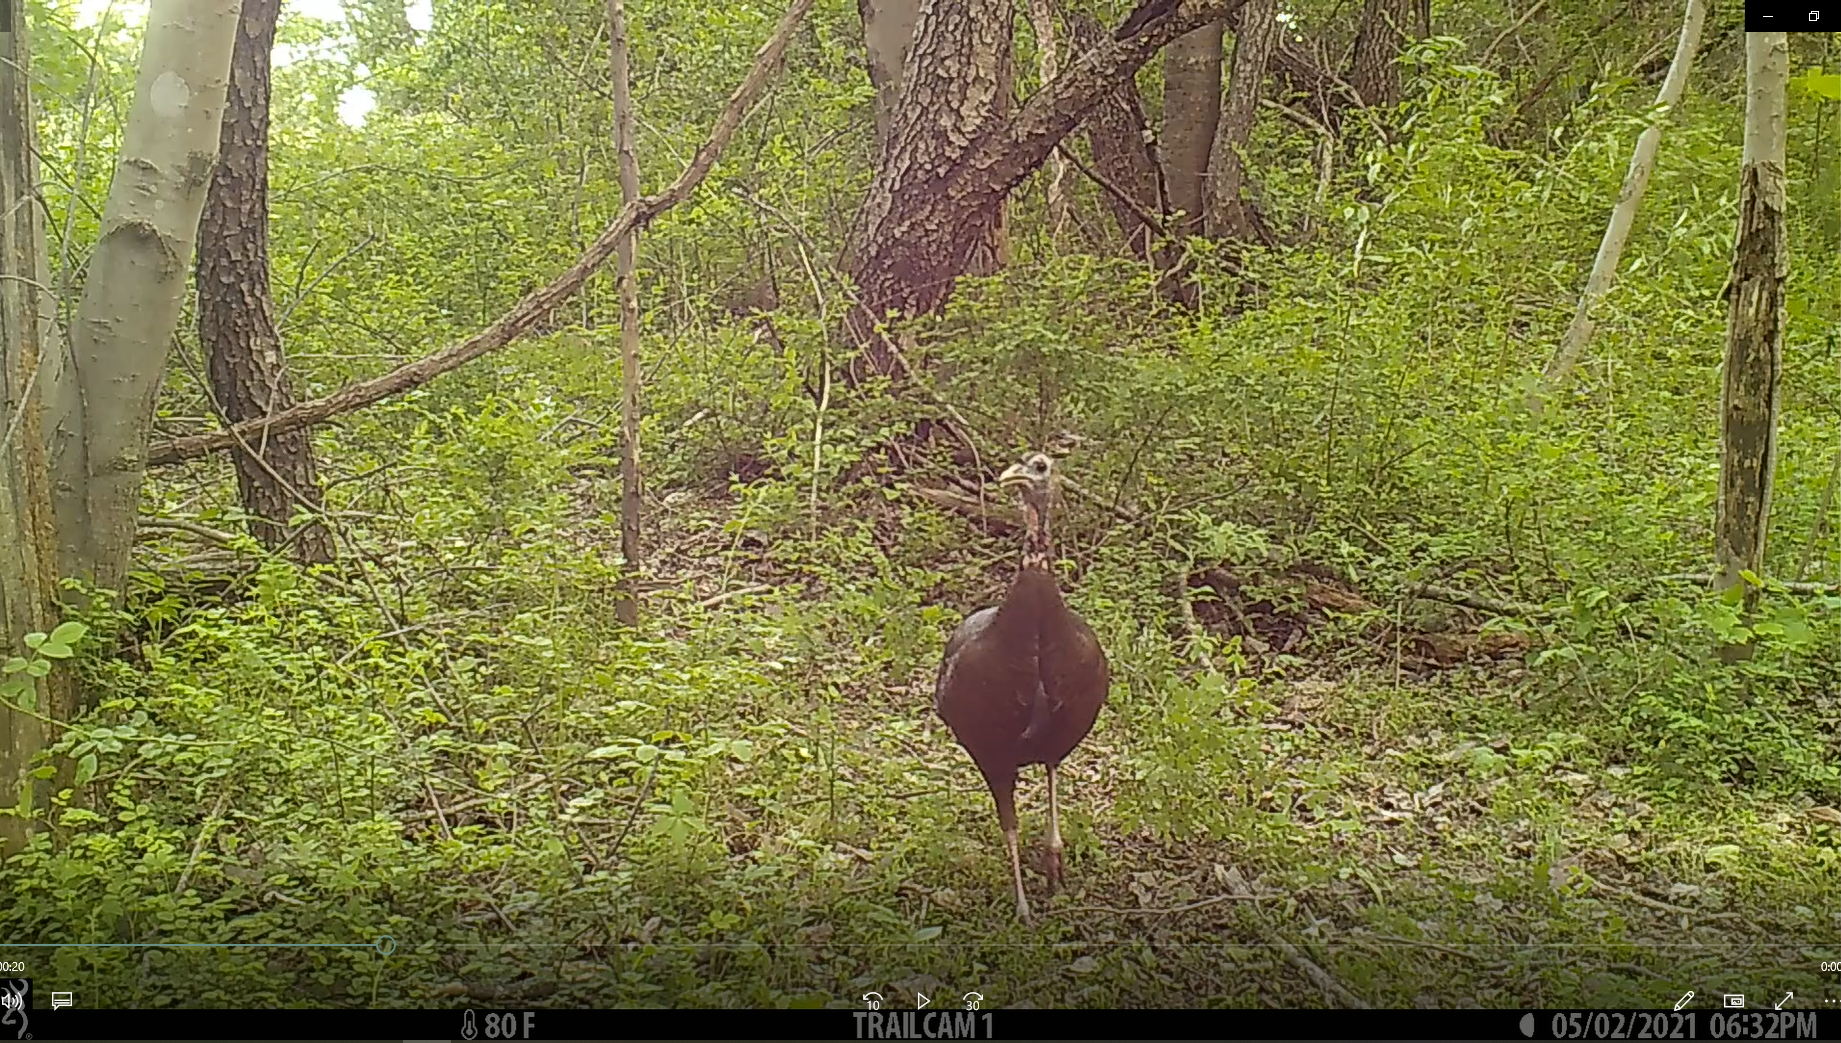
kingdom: Animalia
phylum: Chordata
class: Aves
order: Galliformes
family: Phasianidae
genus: Meleagris
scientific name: Meleagris gallopavo
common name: Wild turkey
